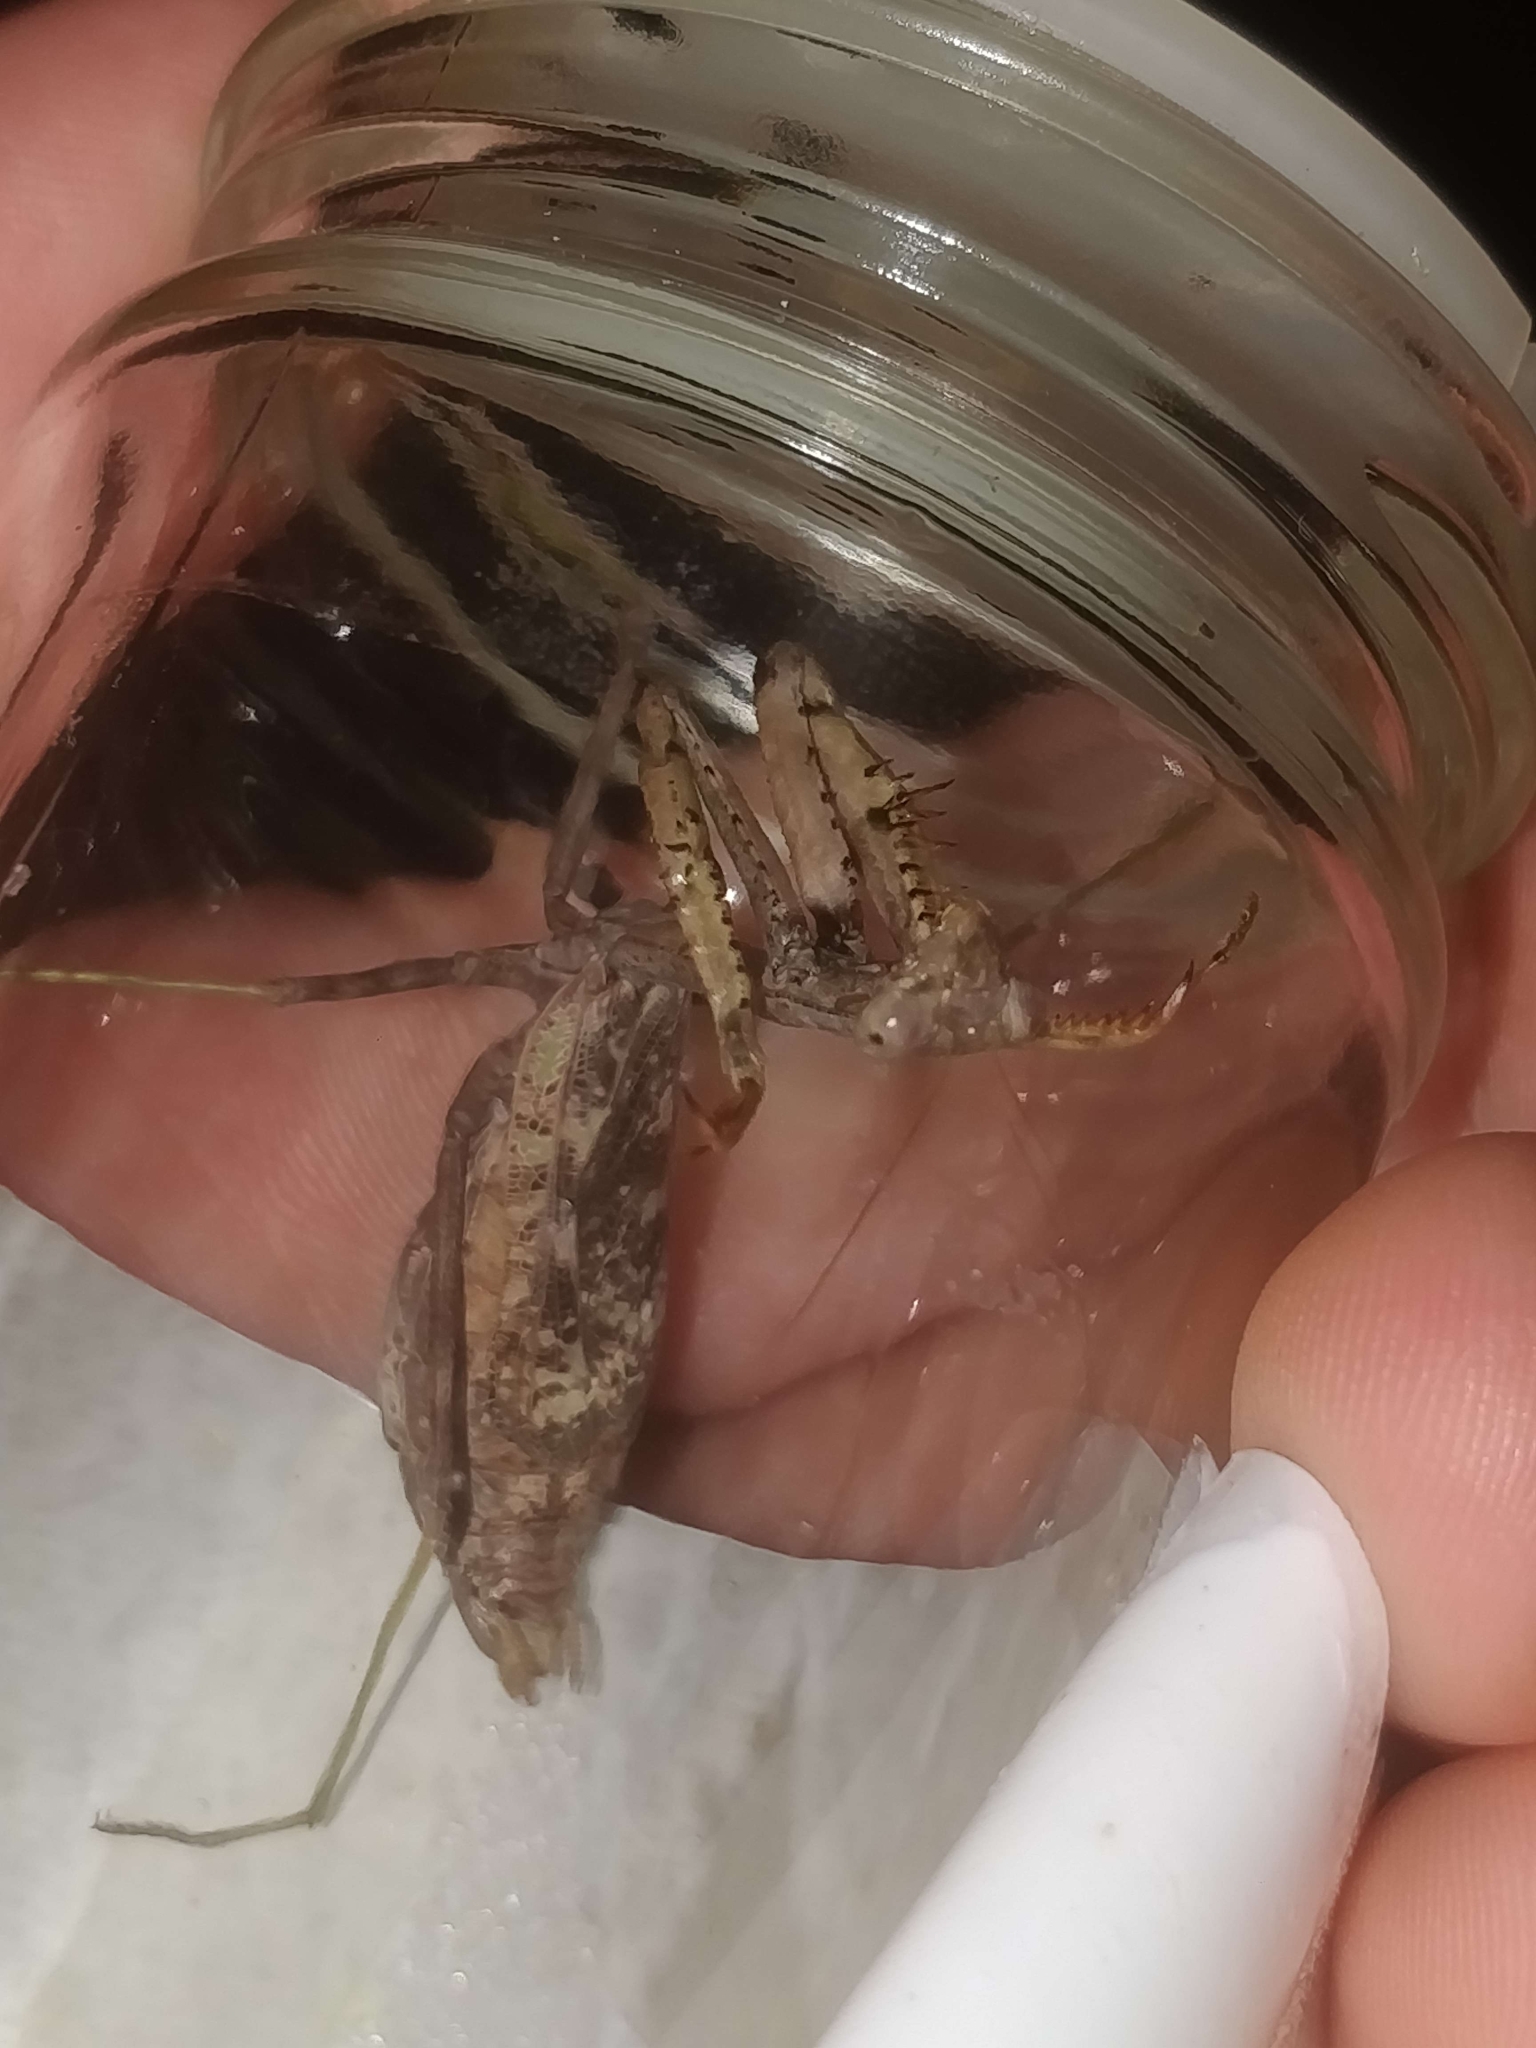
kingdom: Animalia
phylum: Arthropoda
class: Insecta
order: Mantodea
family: Mantidae
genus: Stagmomantis
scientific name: Stagmomantis carolina
